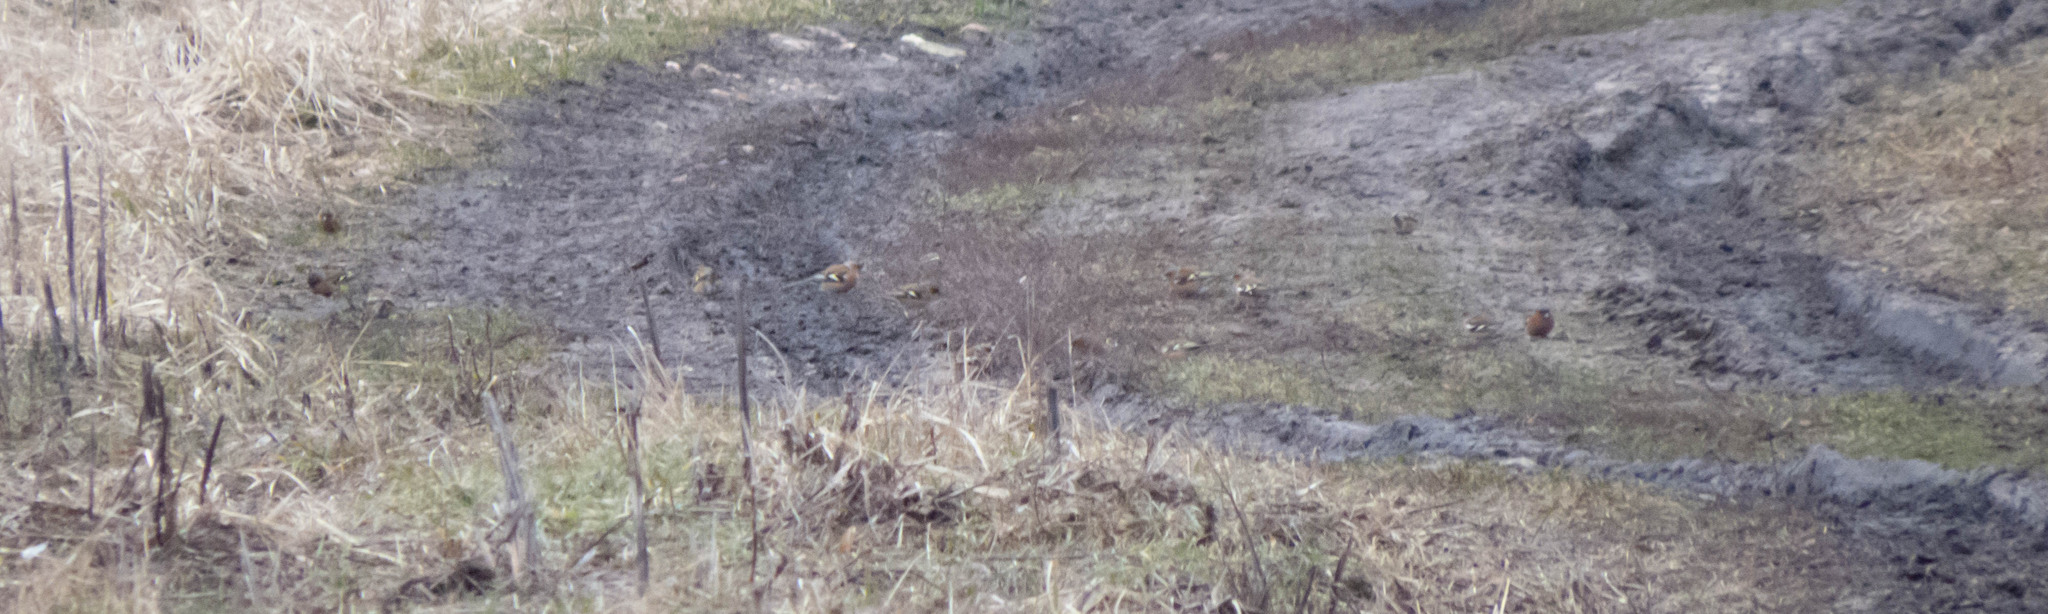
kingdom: Animalia
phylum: Chordata
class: Aves
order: Passeriformes
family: Fringillidae
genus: Fringilla
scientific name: Fringilla coelebs
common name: Common chaffinch
